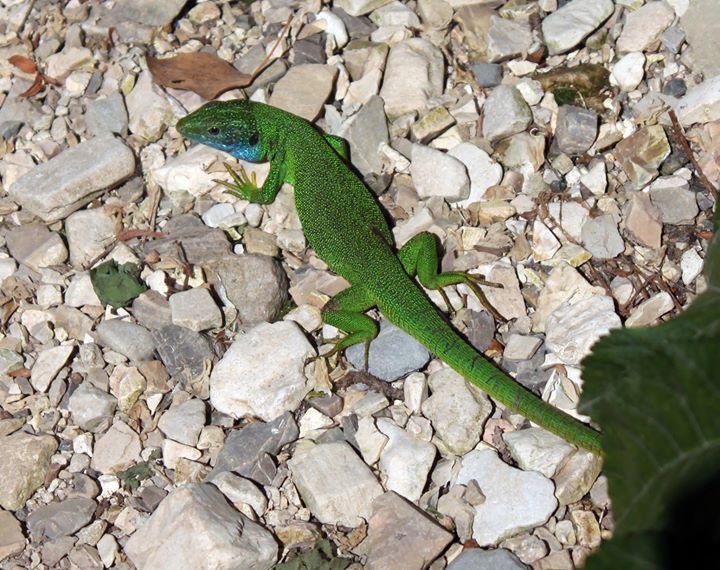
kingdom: Animalia
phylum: Chordata
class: Squamata
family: Lacertidae
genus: Lacerta
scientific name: Lacerta viridis
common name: European green lizard
